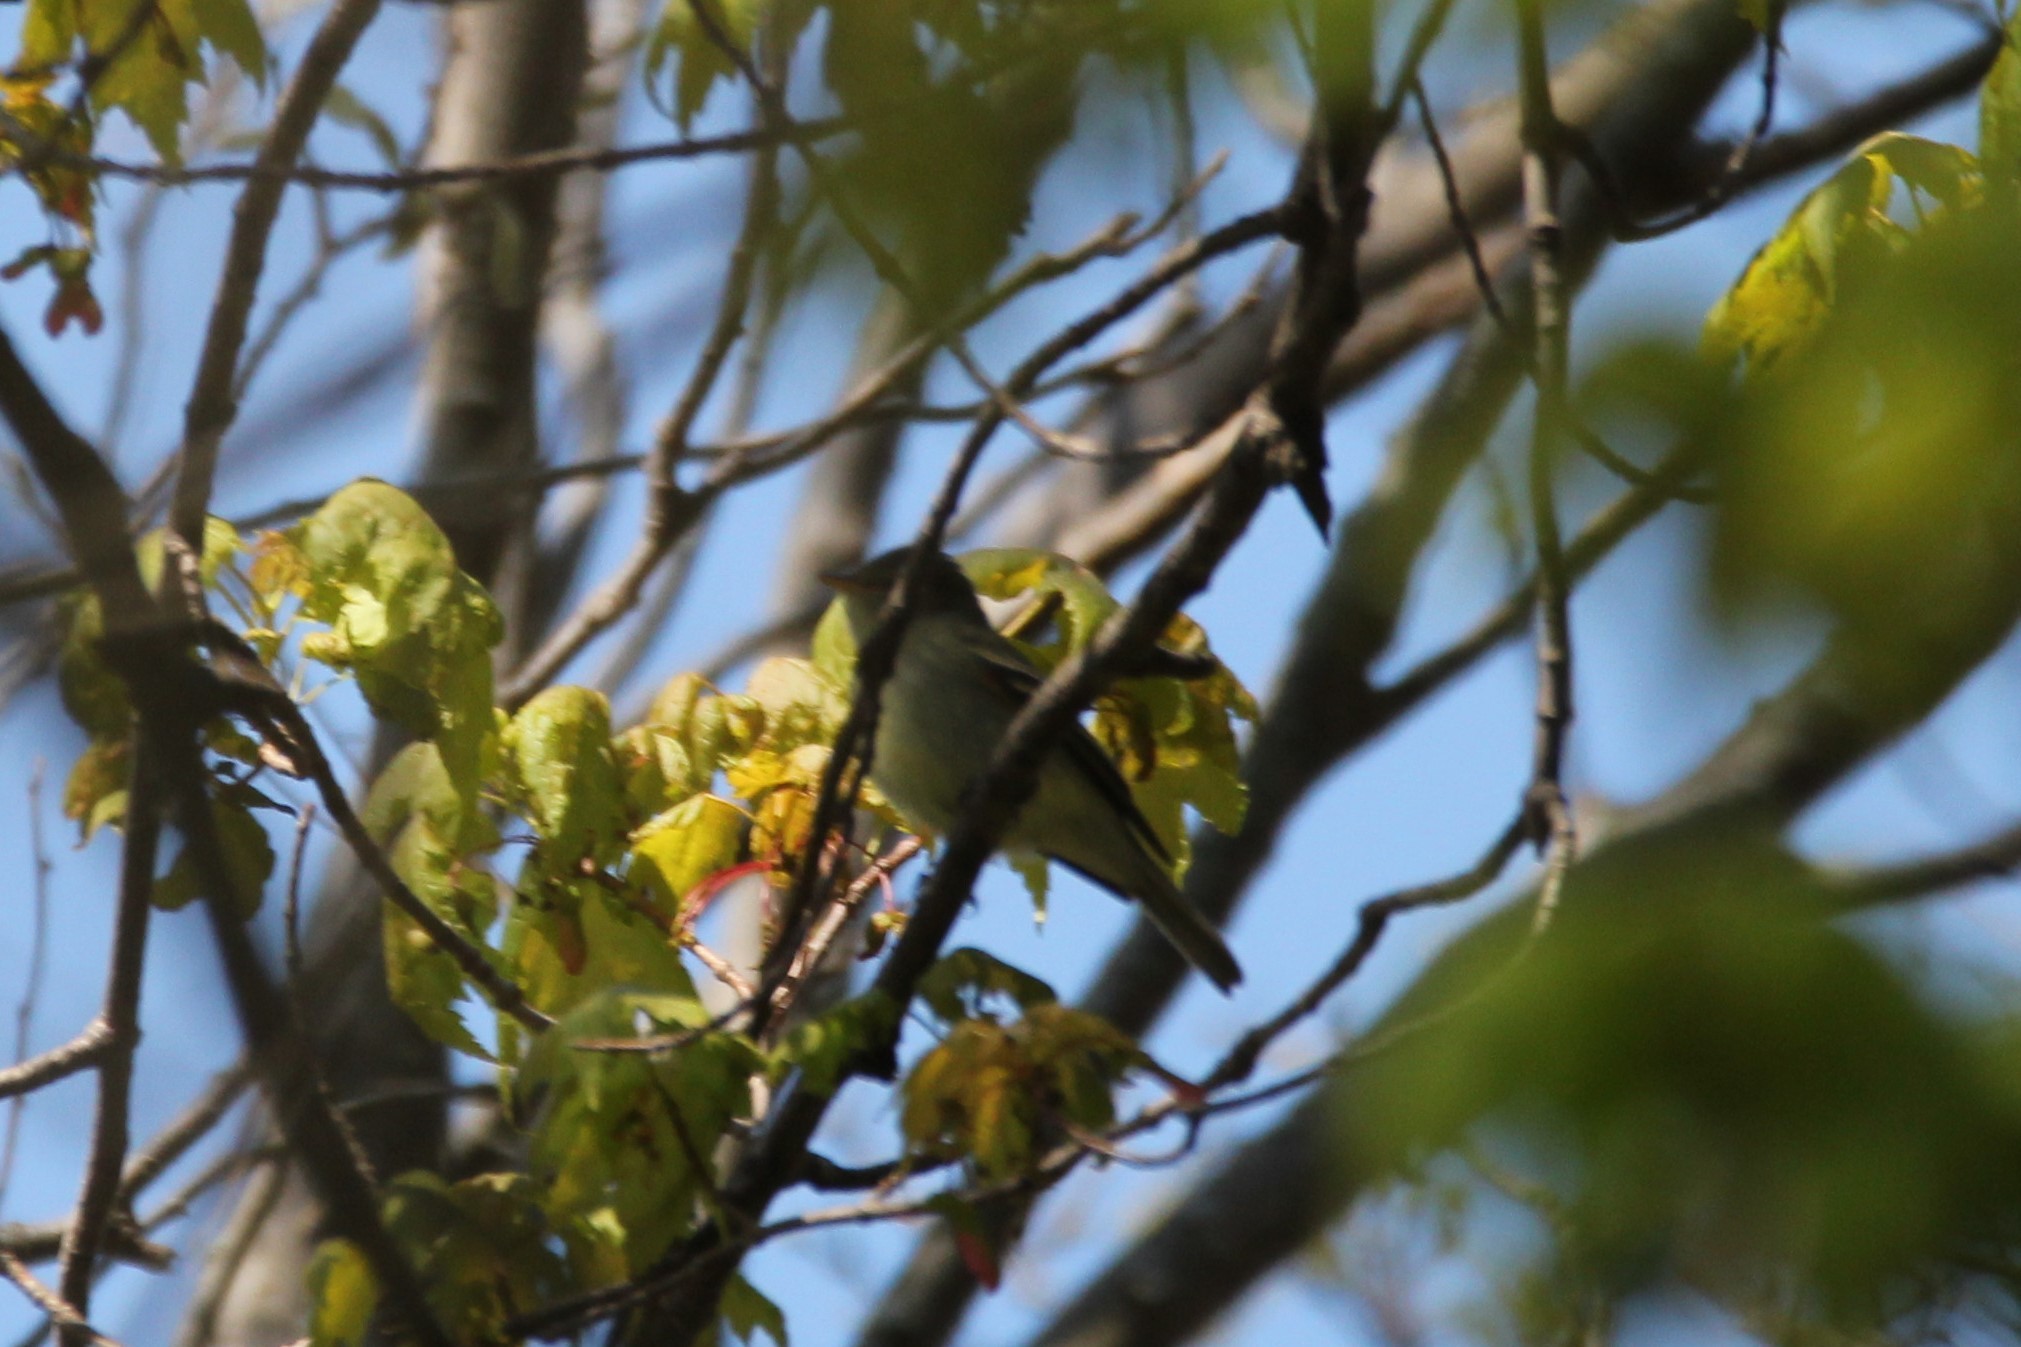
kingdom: Animalia
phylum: Chordata
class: Aves
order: Passeriformes
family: Tyrannidae
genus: Empidonax
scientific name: Empidonax virescens
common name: Acadian flycatcher
